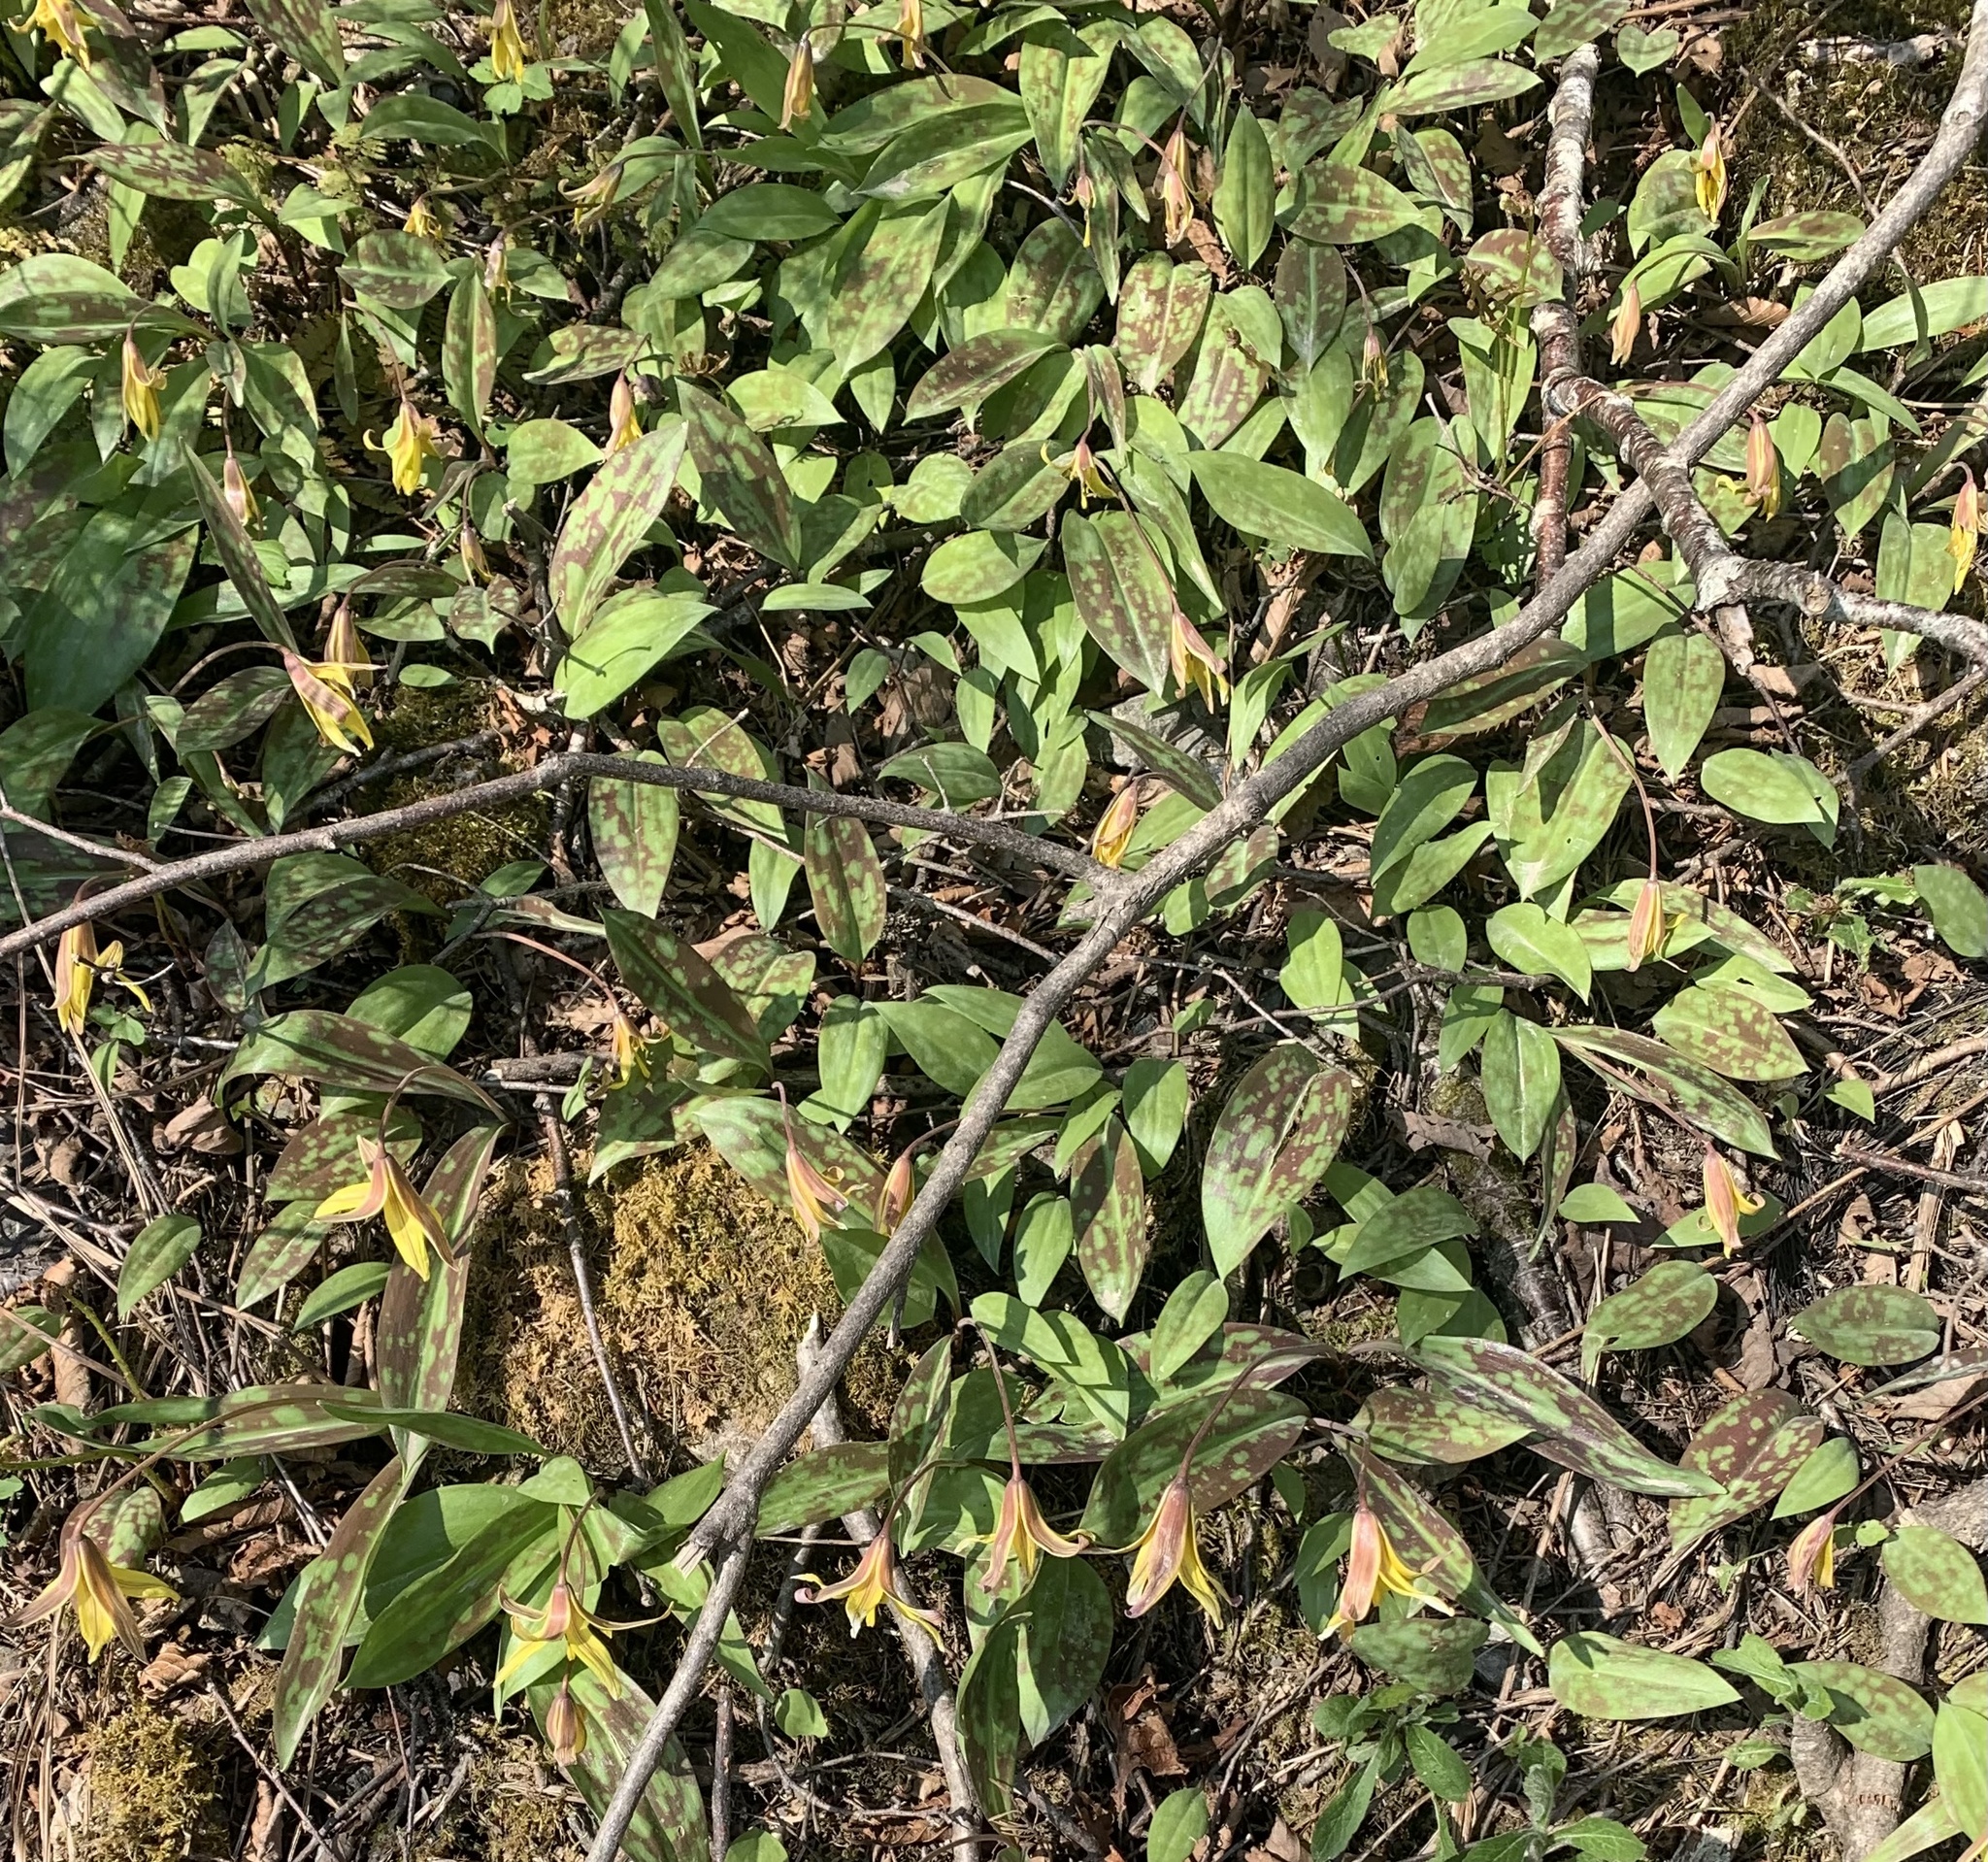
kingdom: Plantae
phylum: Tracheophyta
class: Liliopsida
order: Liliales
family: Liliaceae
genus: Erythronium
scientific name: Erythronium americanum
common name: Yellow adder's-tongue
